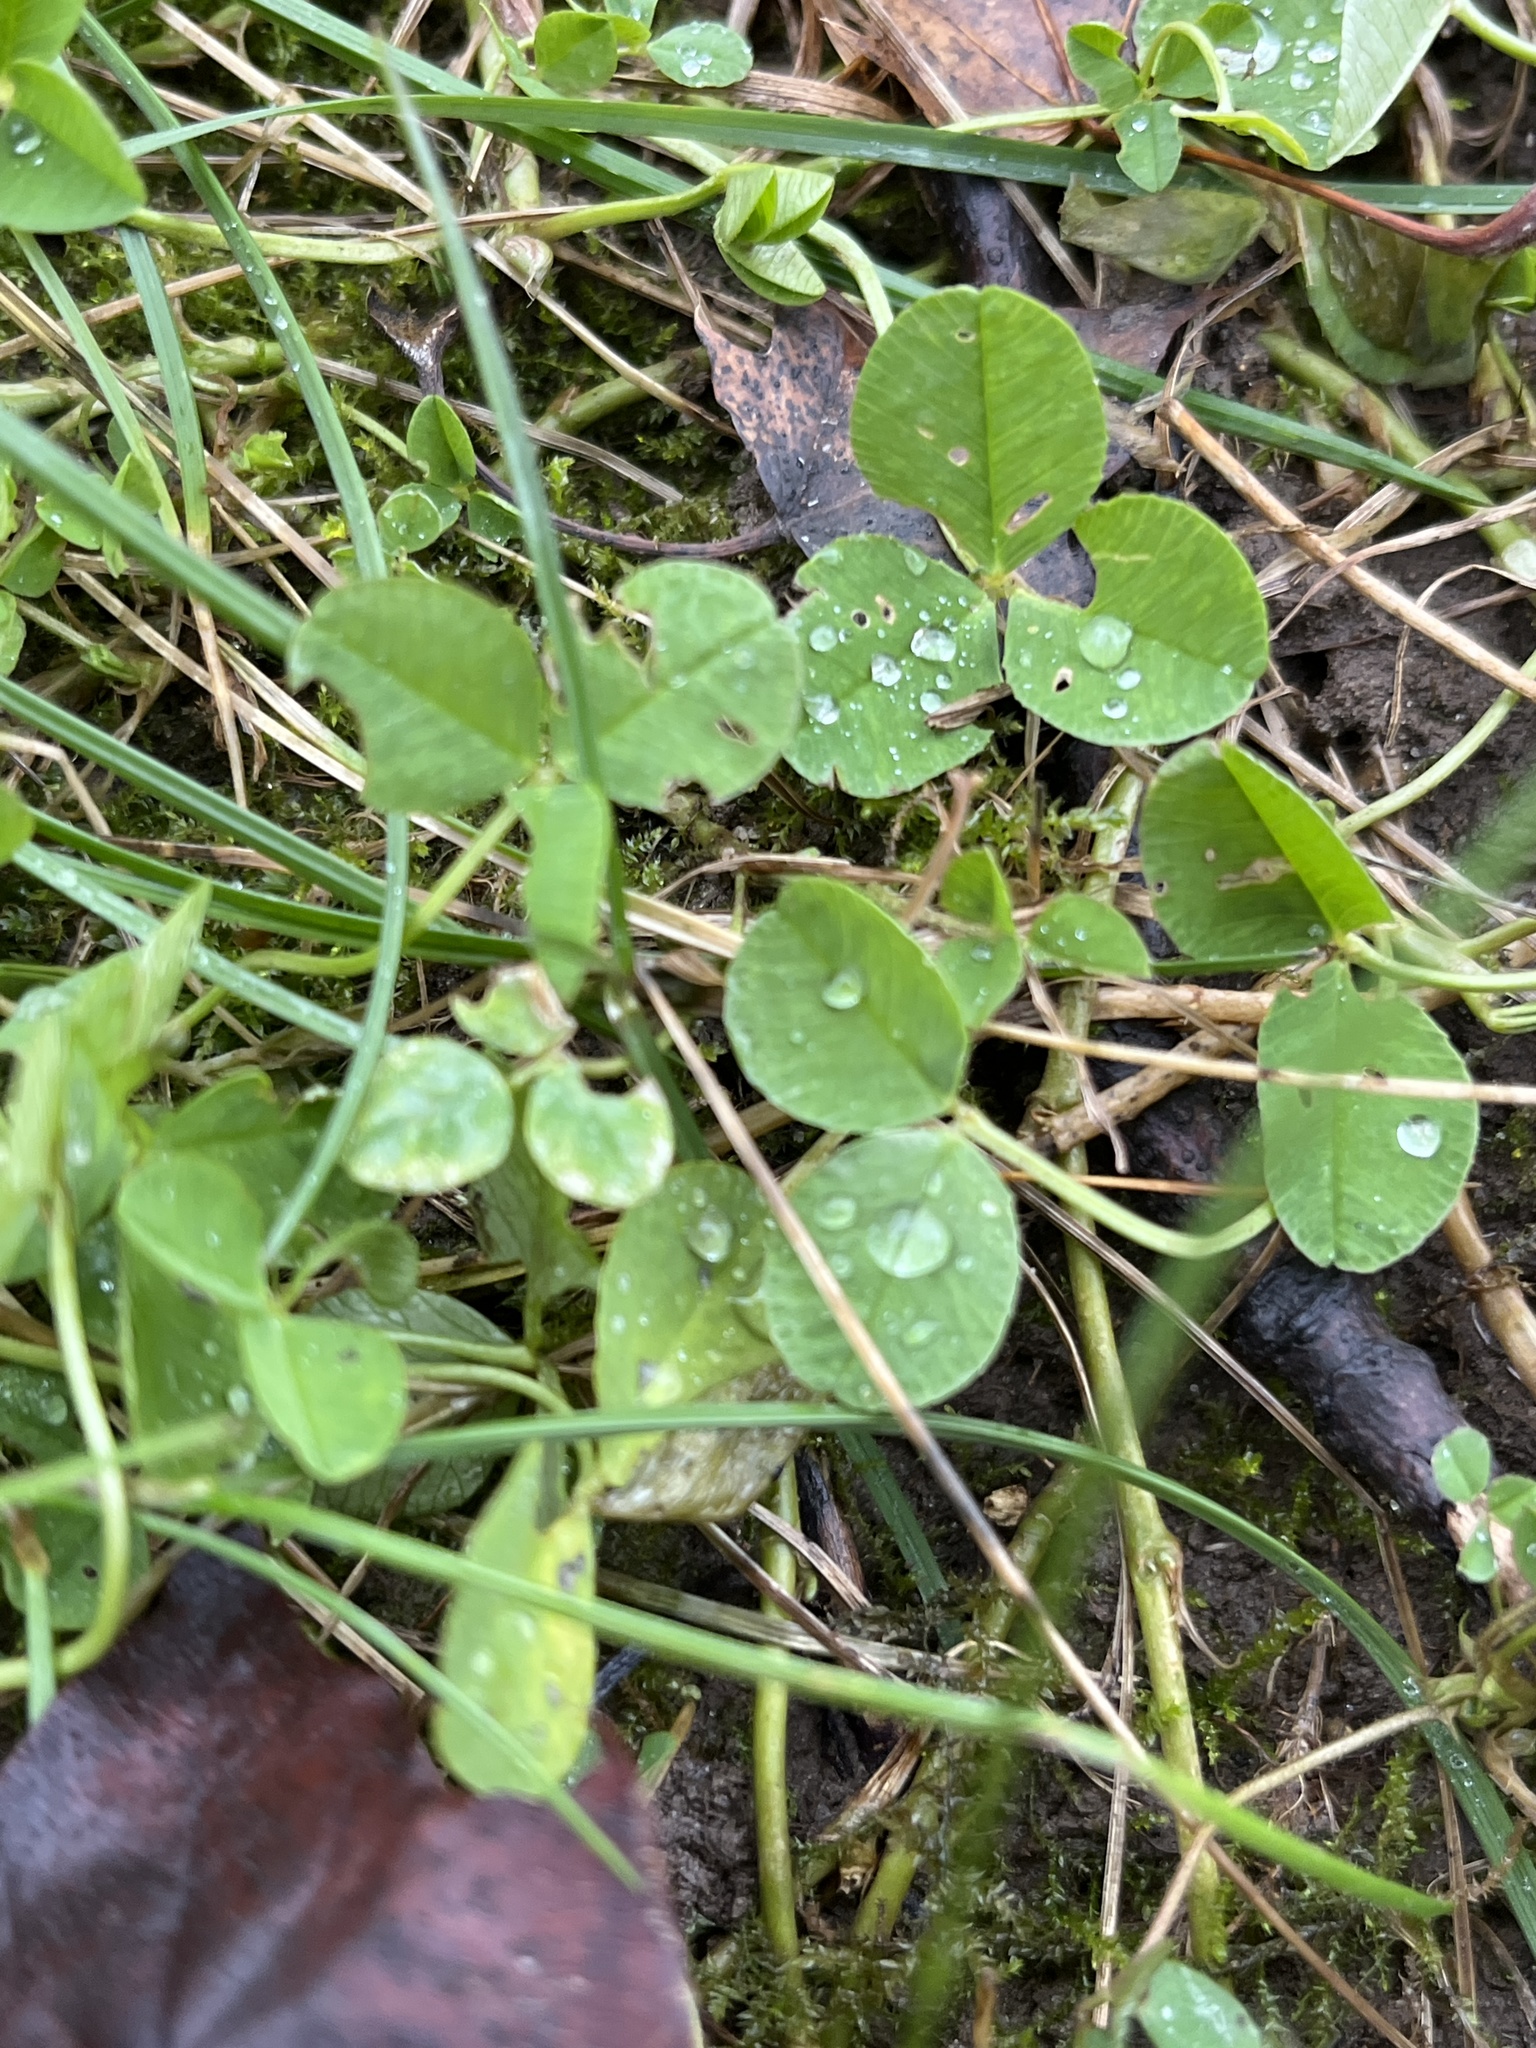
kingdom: Plantae
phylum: Tracheophyta
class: Magnoliopsida
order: Fabales
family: Fabaceae
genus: Trifolium
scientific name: Trifolium repens
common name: White clover
